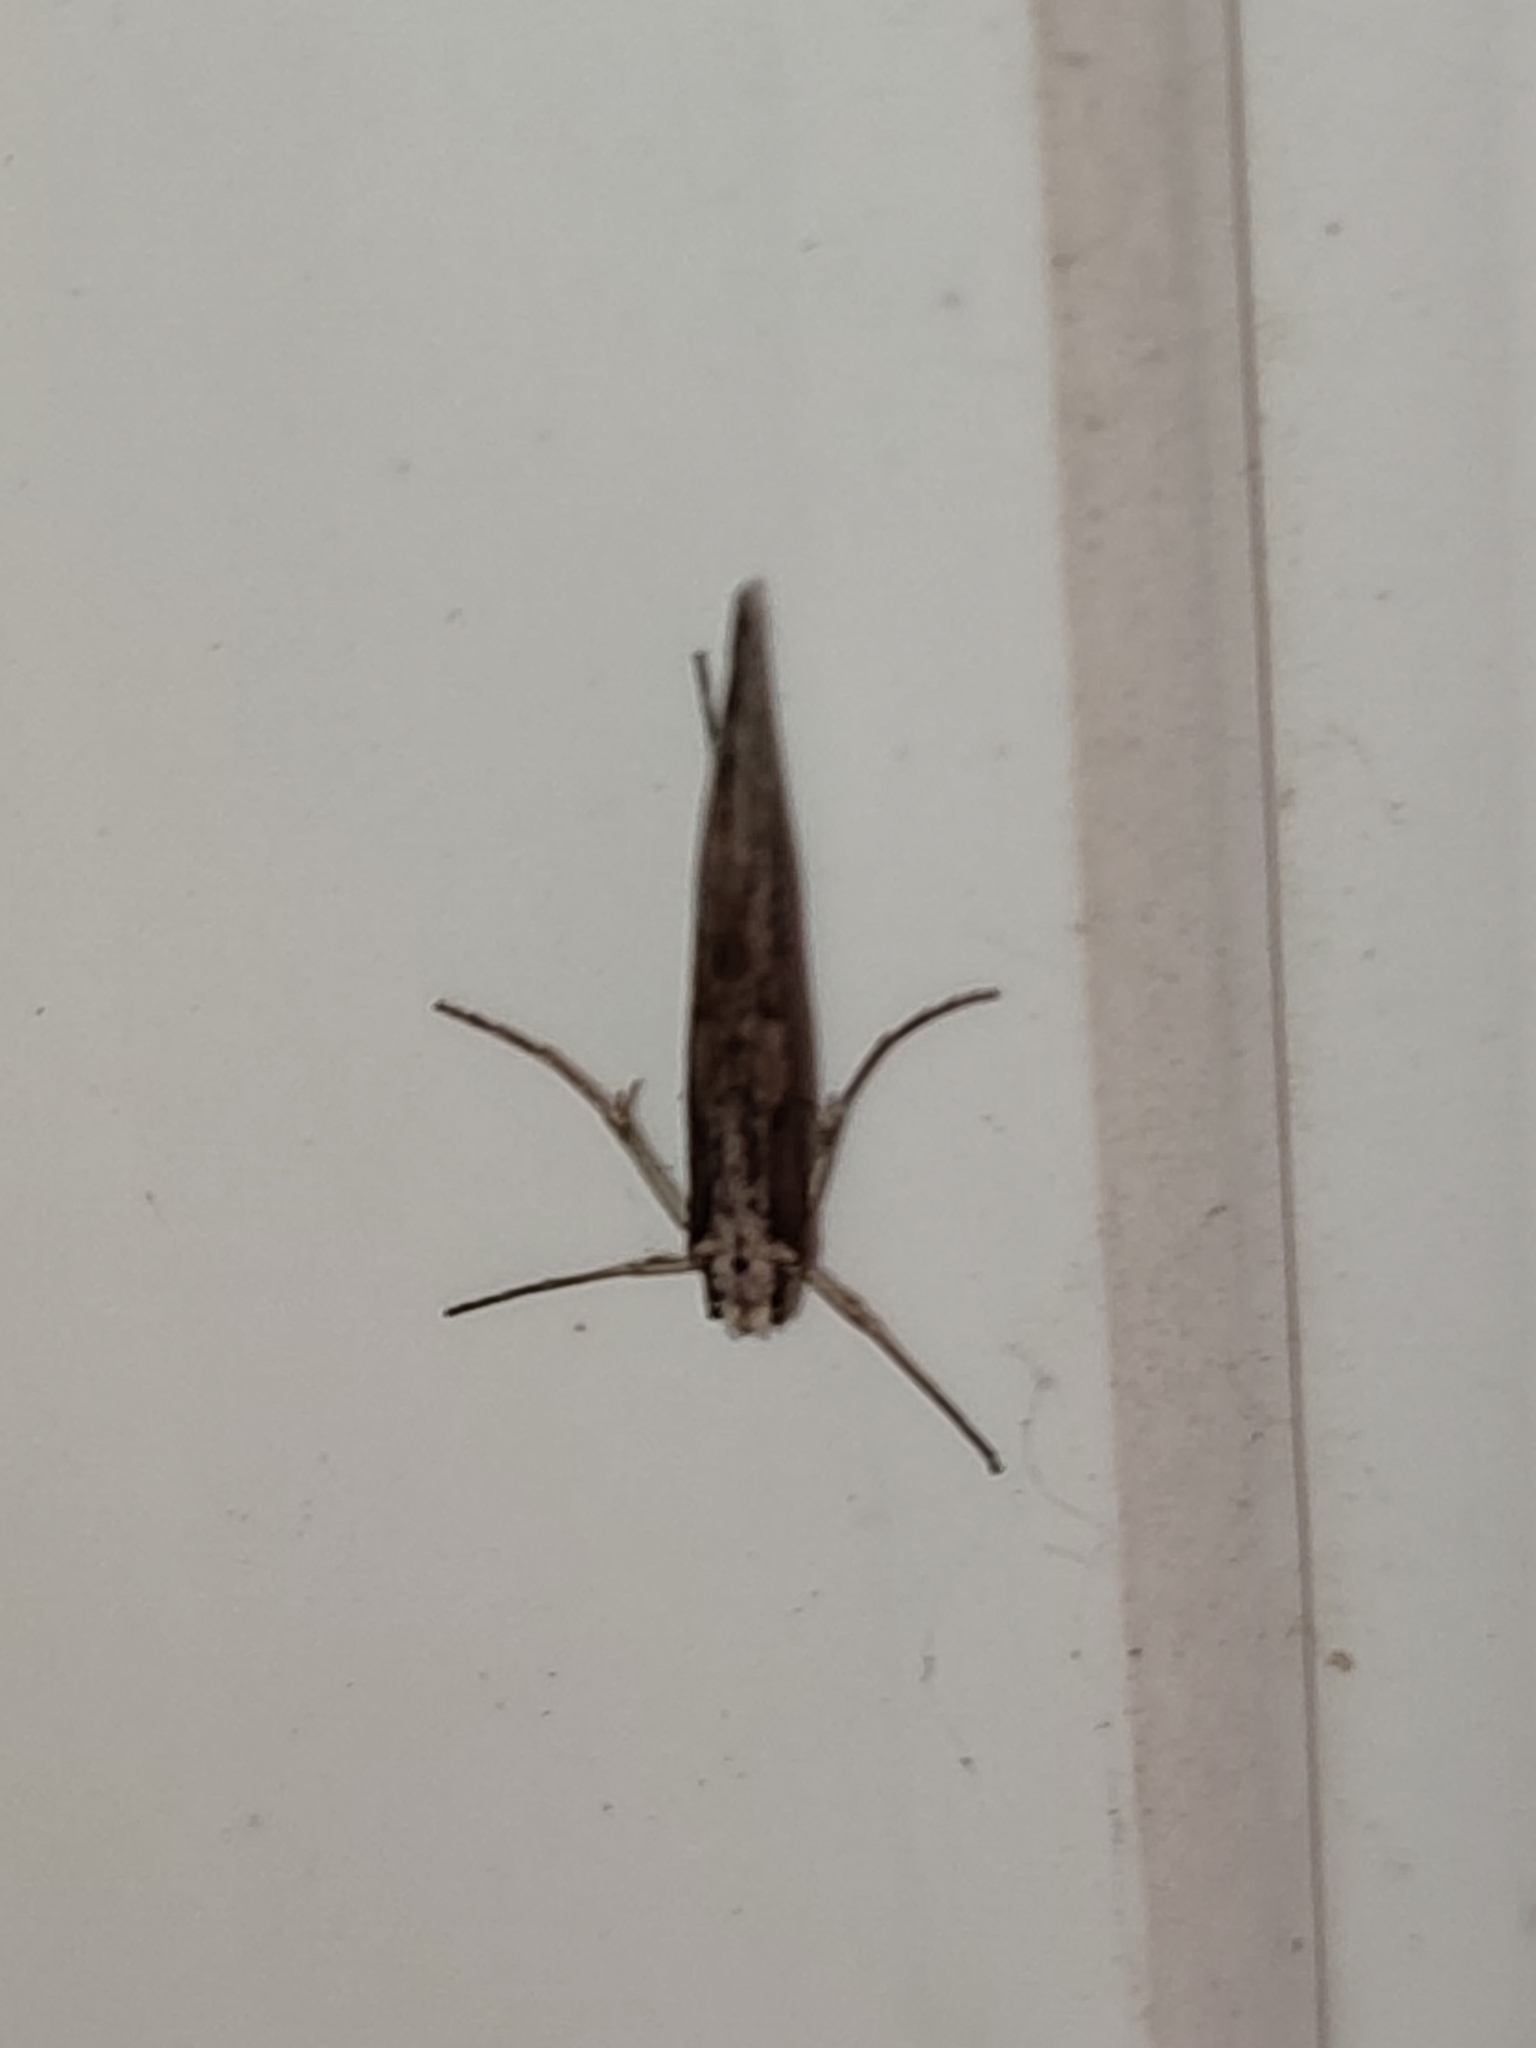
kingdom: Animalia
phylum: Arthropoda
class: Insecta
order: Lepidoptera
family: Eriocottidae
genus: Deuterotinea
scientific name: Deuterotinea casanella
